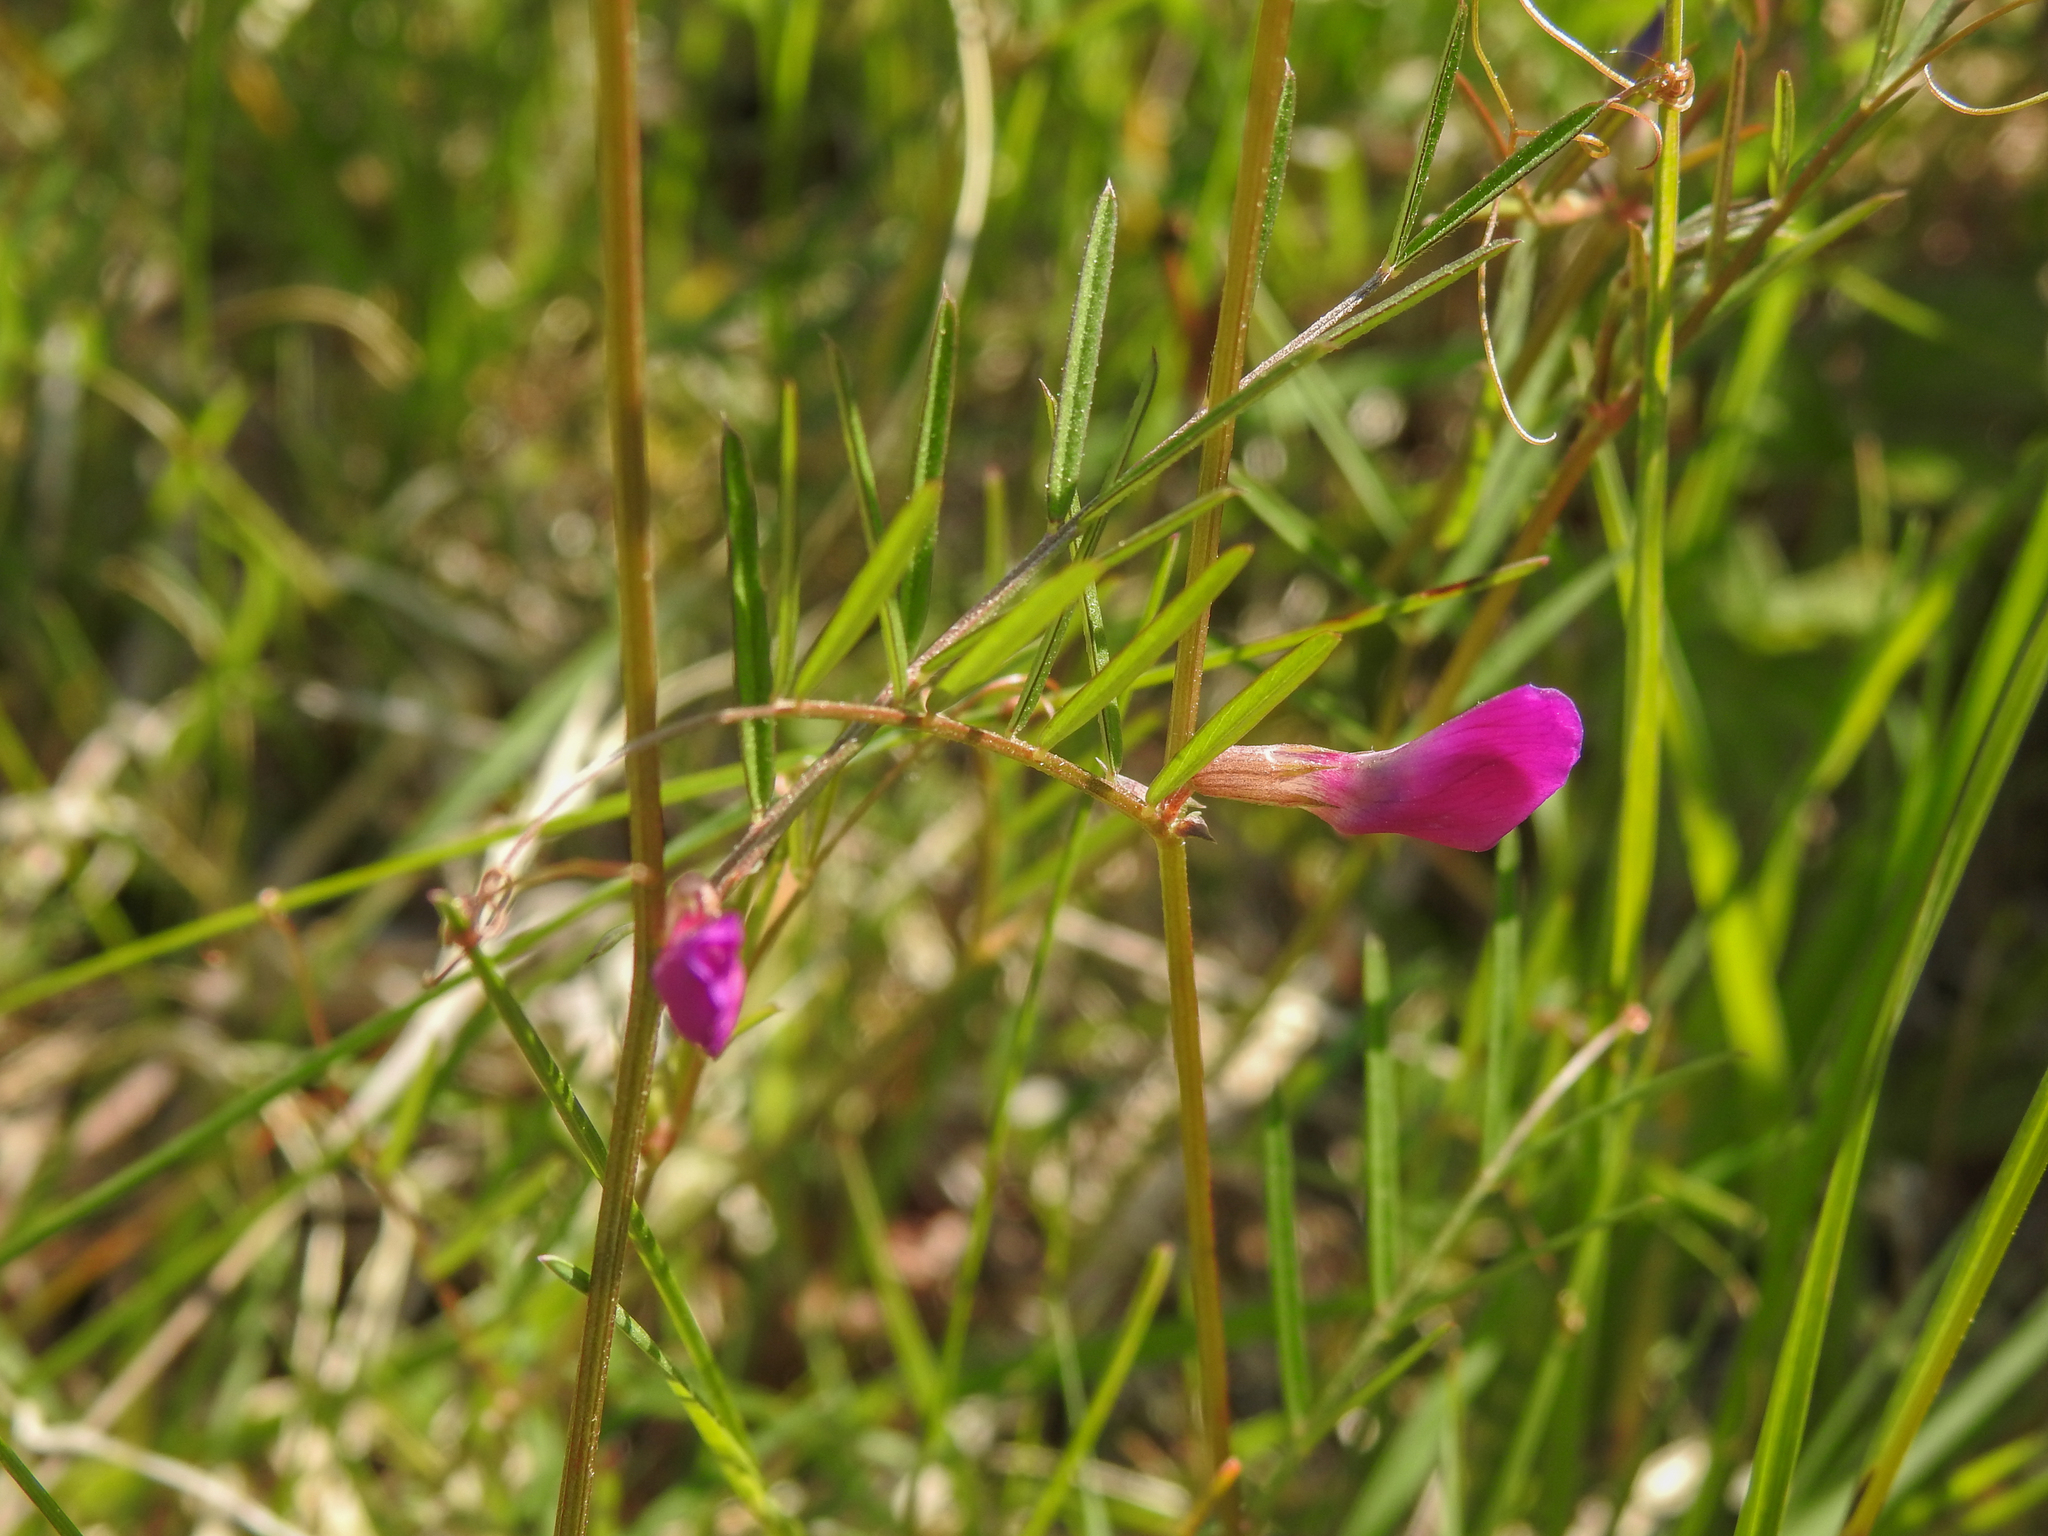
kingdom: Plantae
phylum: Tracheophyta
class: Magnoliopsida
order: Fabales
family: Fabaceae
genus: Vicia
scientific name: Vicia sativa
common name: Garden vetch
